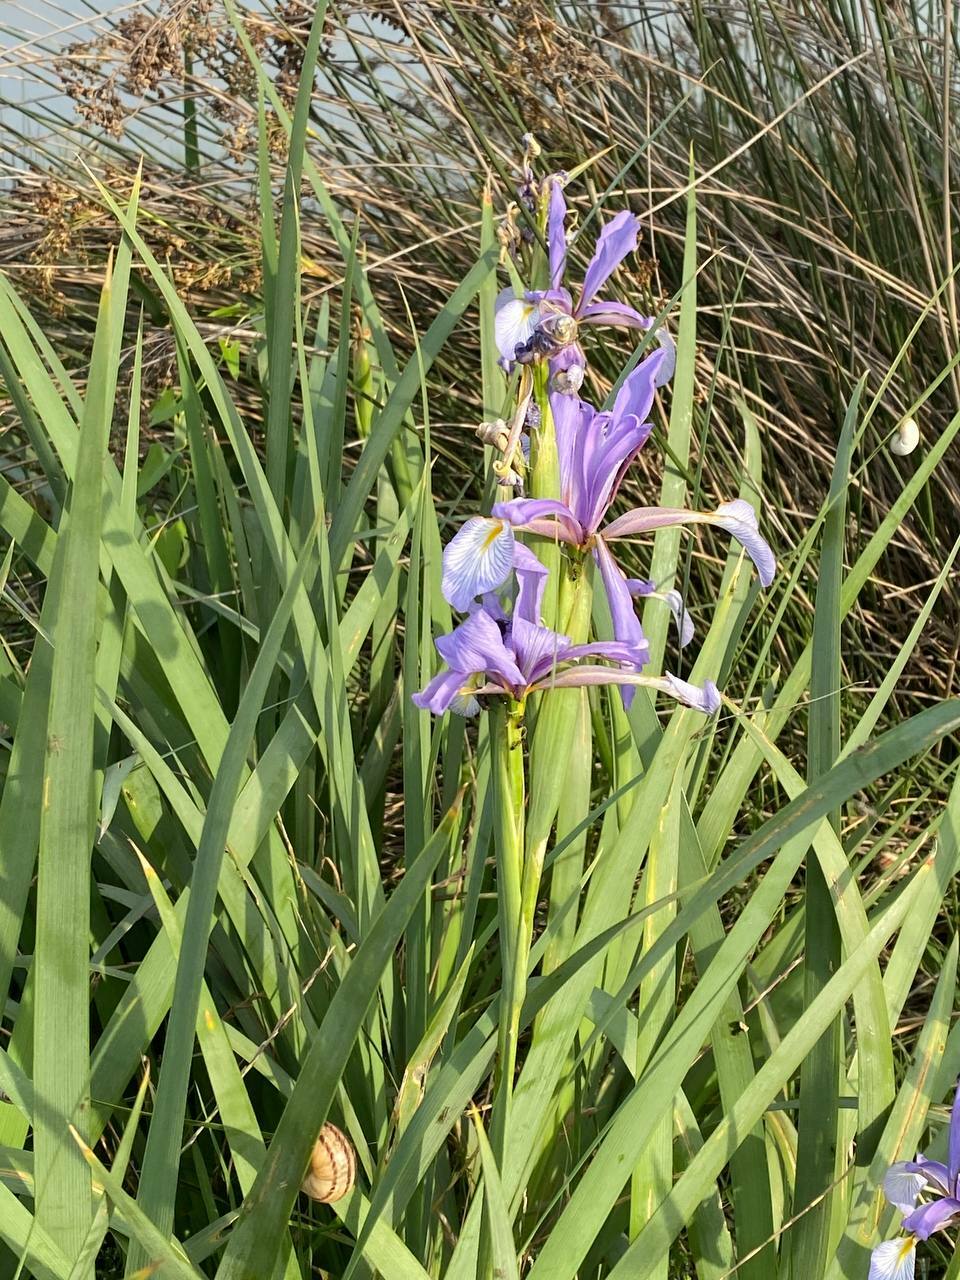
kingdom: Plantae
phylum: Tracheophyta
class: Liliopsida
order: Asparagales
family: Iridaceae
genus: Iris
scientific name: Iris pseudonotha
